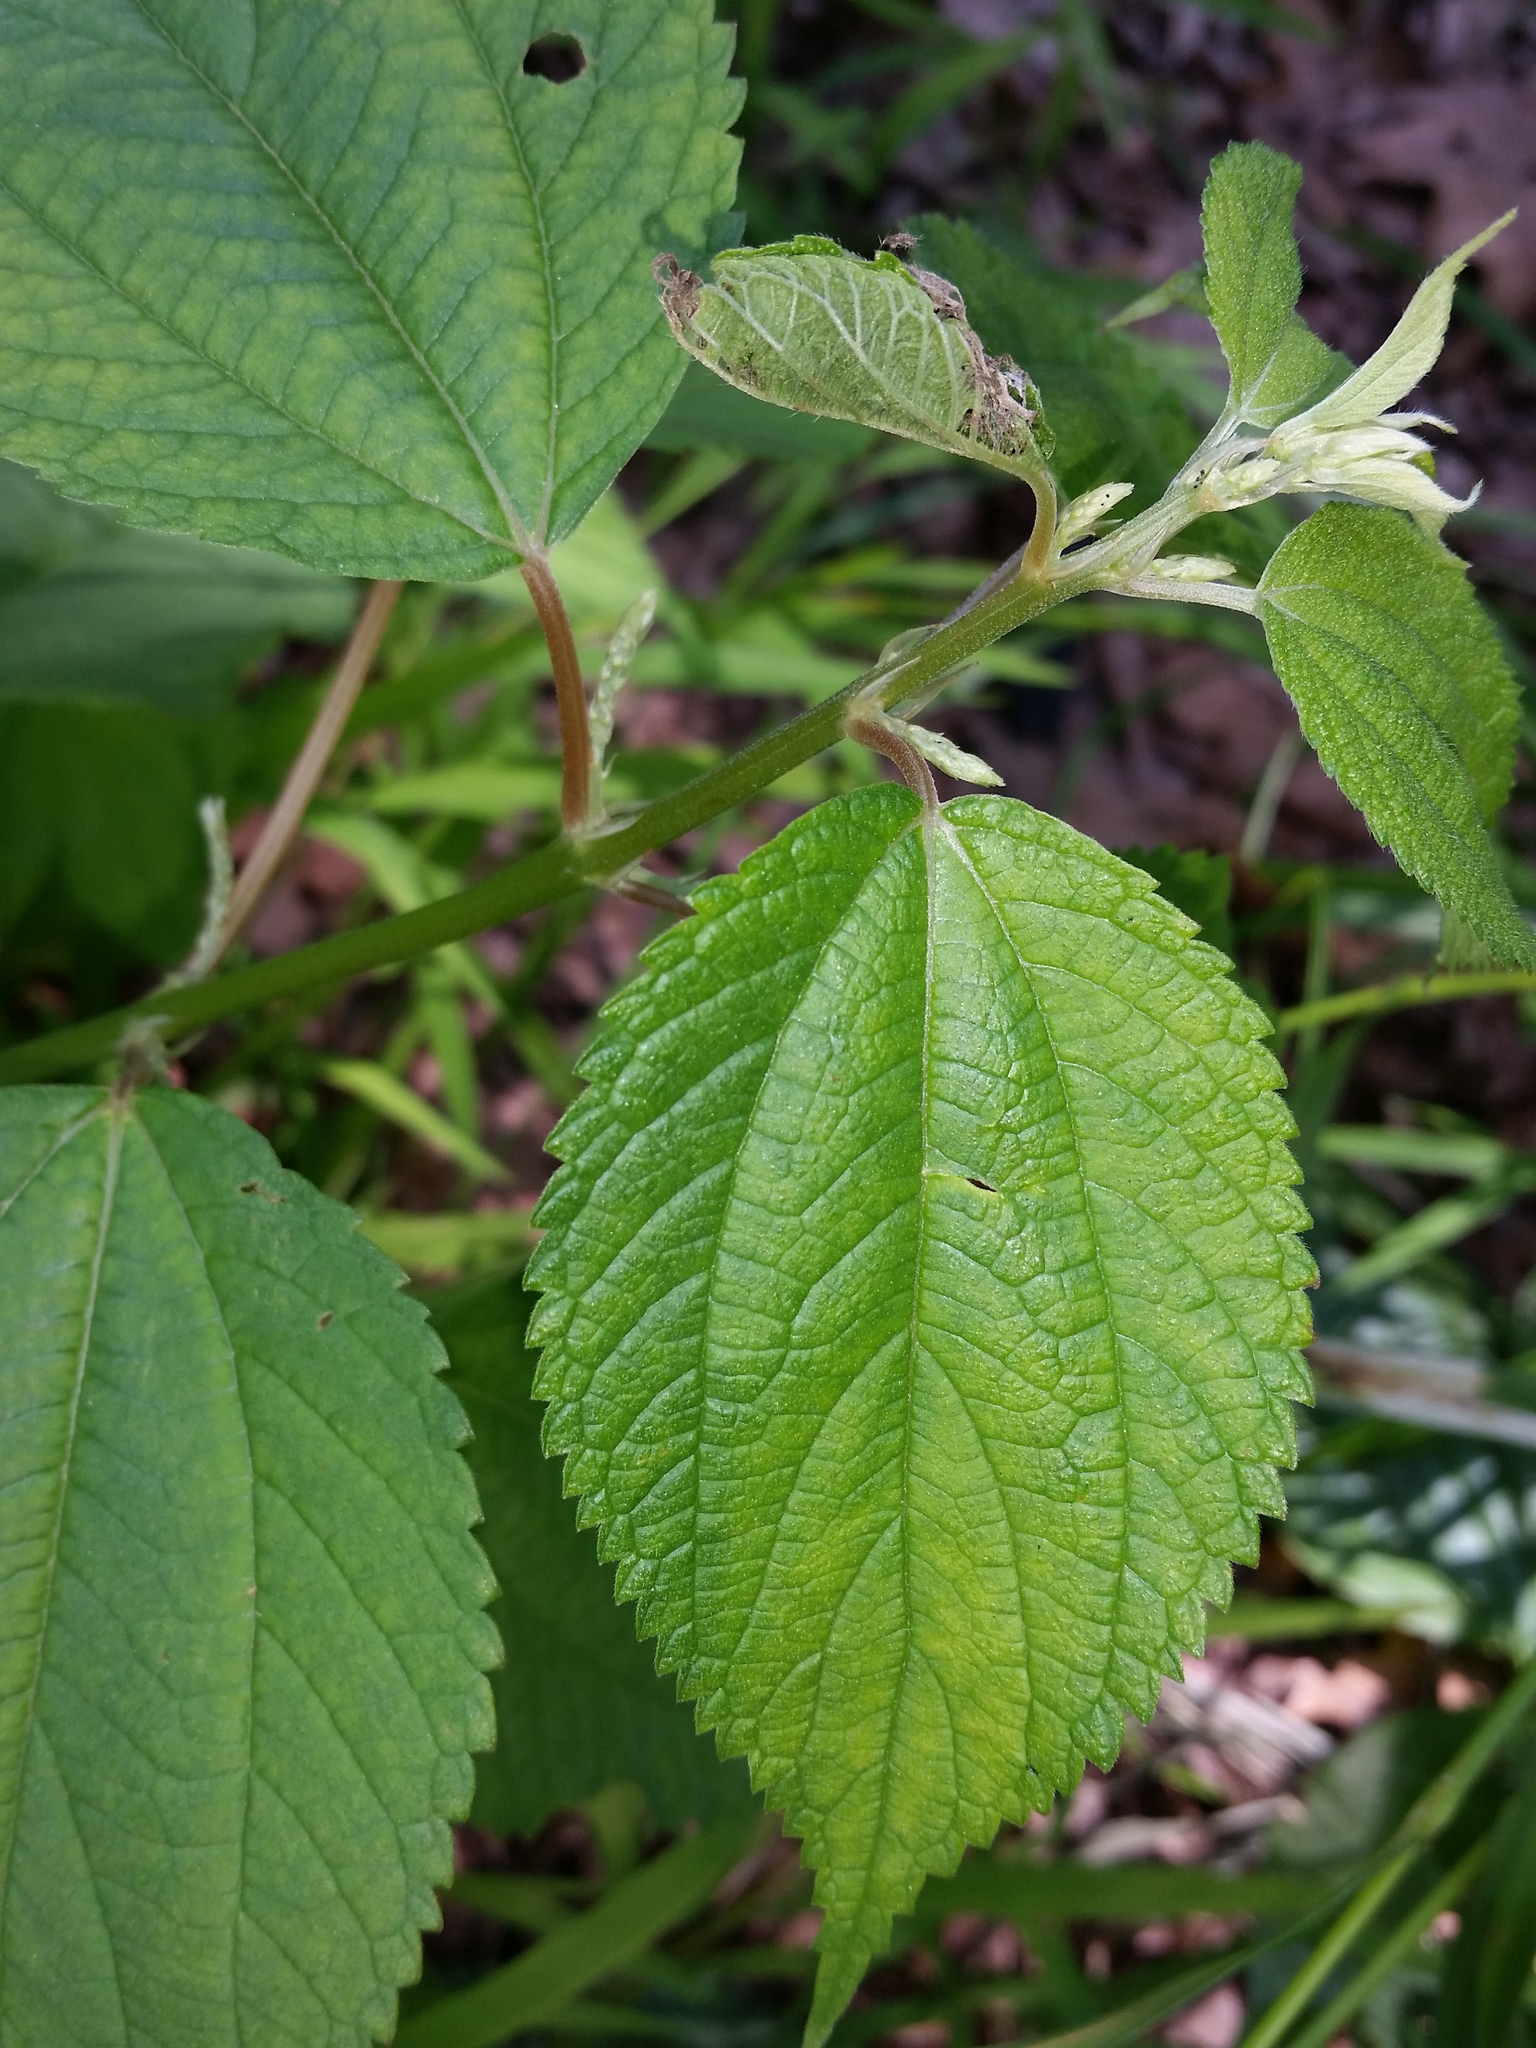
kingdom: Plantae
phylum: Tracheophyta
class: Magnoliopsida
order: Rosales
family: Urticaceae
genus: Boehmeria
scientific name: Boehmeria cylindrica
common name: Bog-hemp
